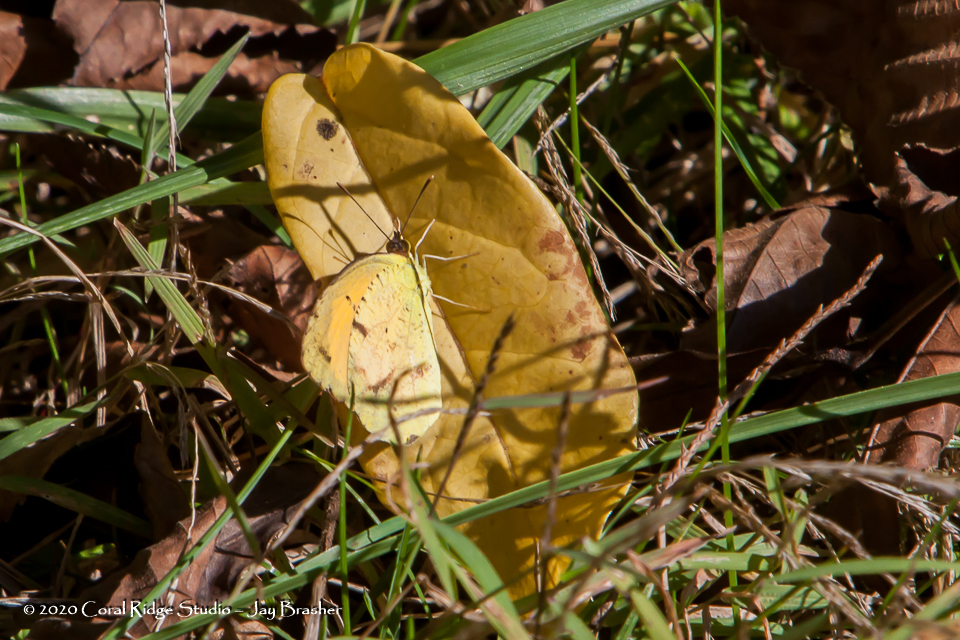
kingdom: Animalia
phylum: Arthropoda
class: Insecta
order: Lepidoptera
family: Pieridae
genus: Abaeis
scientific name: Abaeis nicippe
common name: Sleepy orange
